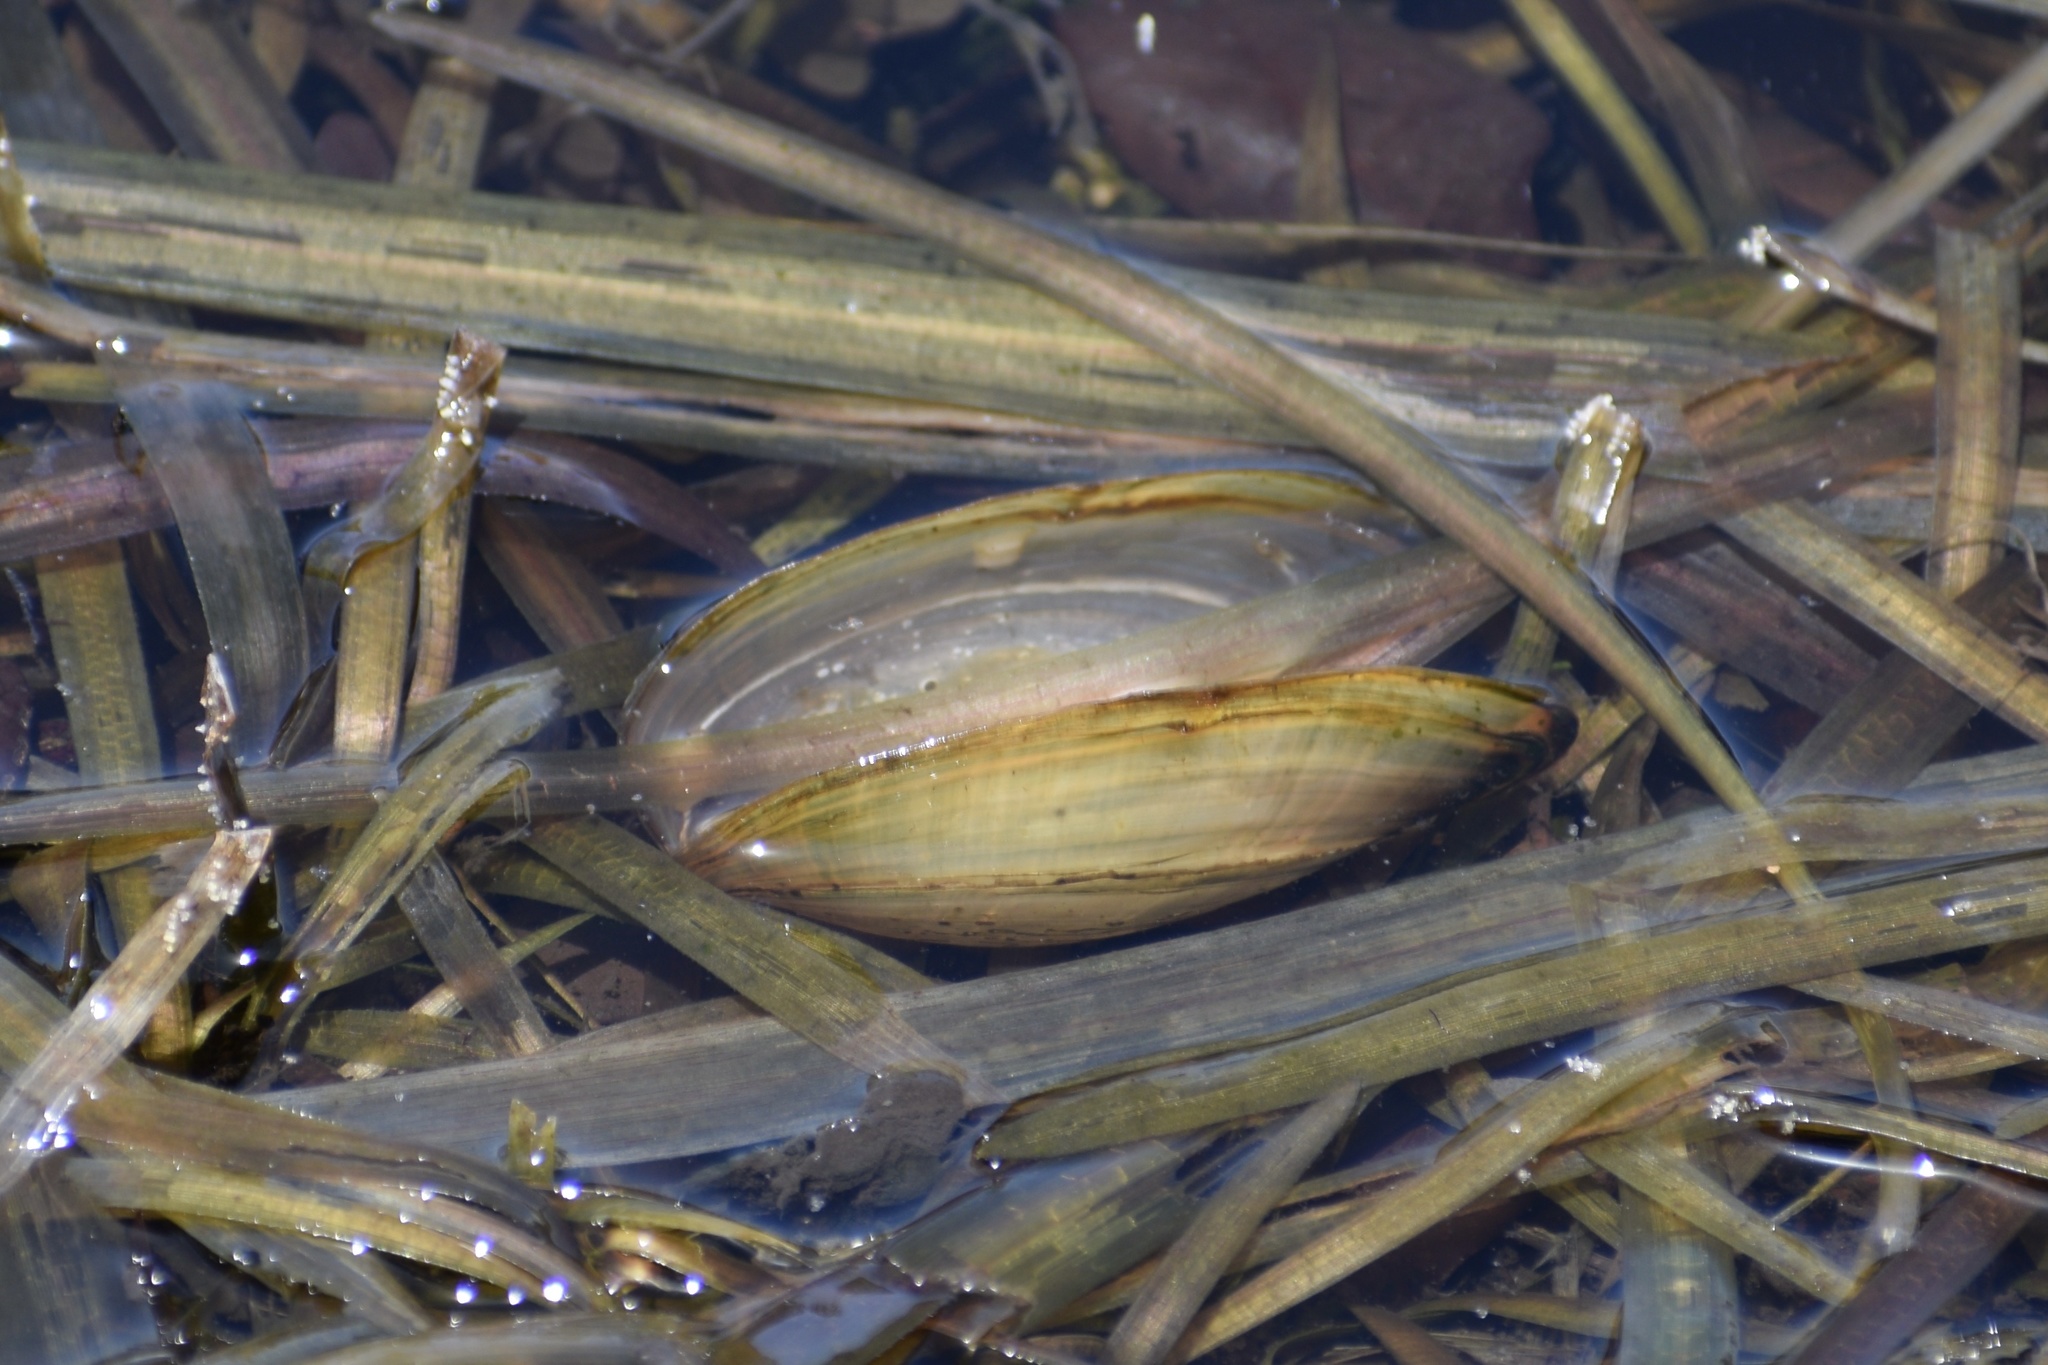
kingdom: Animalia
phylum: Mollusca
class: Bivalvia
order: Unionida
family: Unionidae
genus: Utterbackia
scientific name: Utterbackia imbecillis
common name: Paper pondshell
